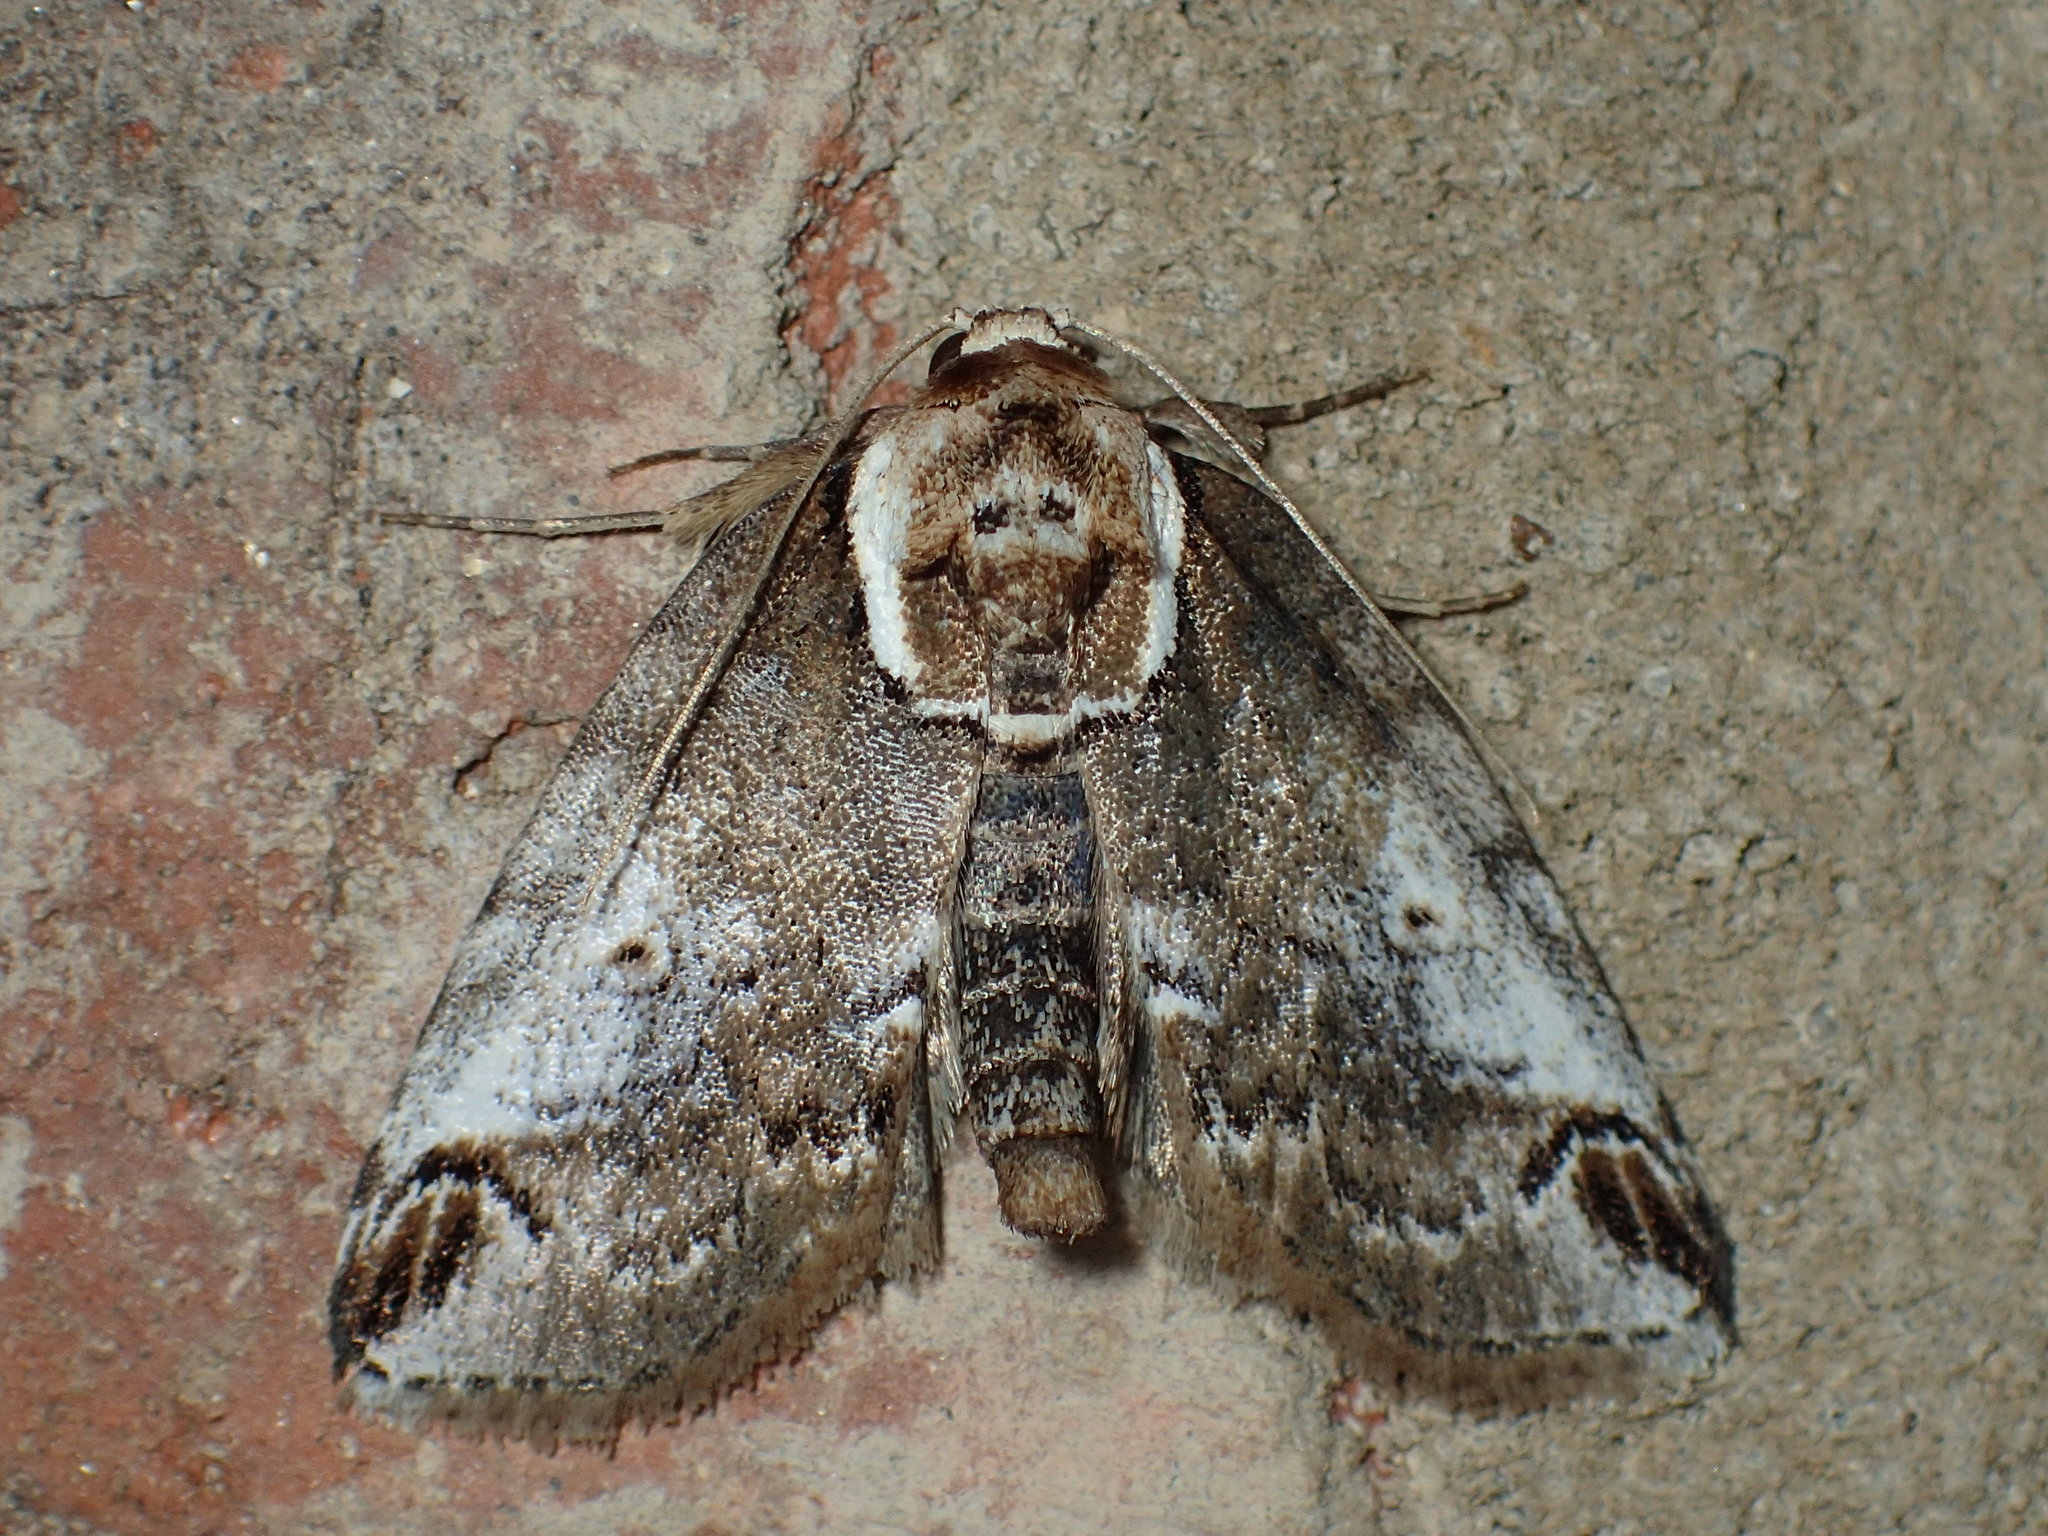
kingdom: Animalia
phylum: Arthropoda
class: Insecta
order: Lepidoptera
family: Nolidae
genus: Baileya
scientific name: Baileya ophthalmica
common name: Eyed baileya moth
